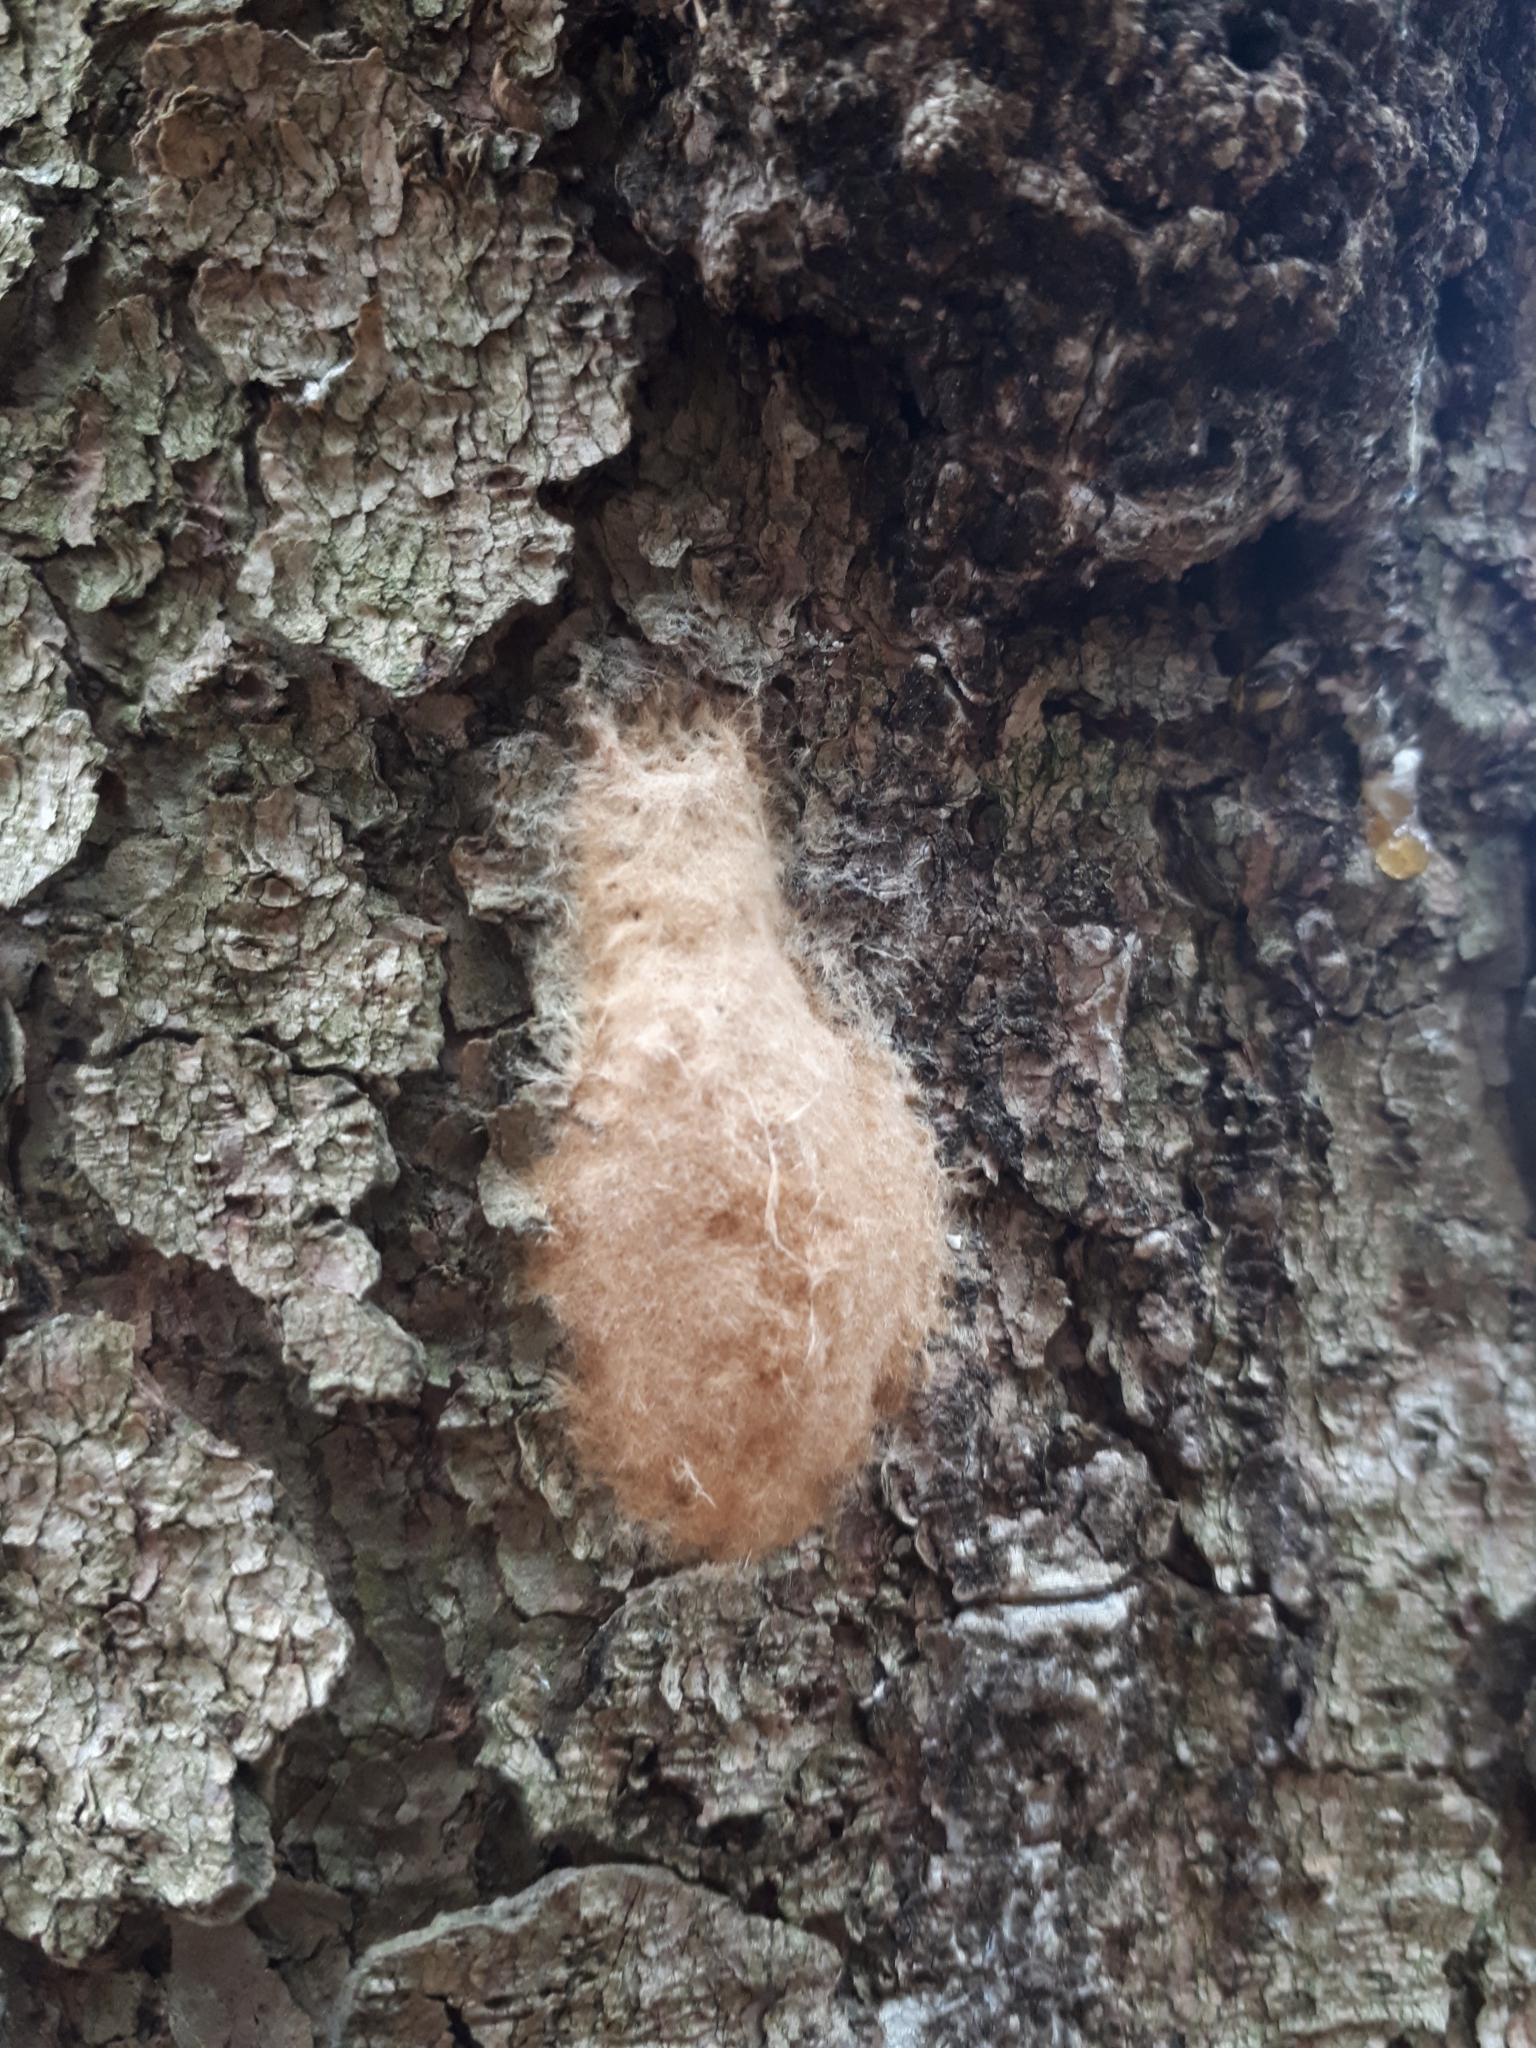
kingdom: Animalia
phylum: Arthropoda
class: Insecta
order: Lepidoptera
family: Erebidae
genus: Lymantria
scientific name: Lymantria dispar
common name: Gypsy moth
